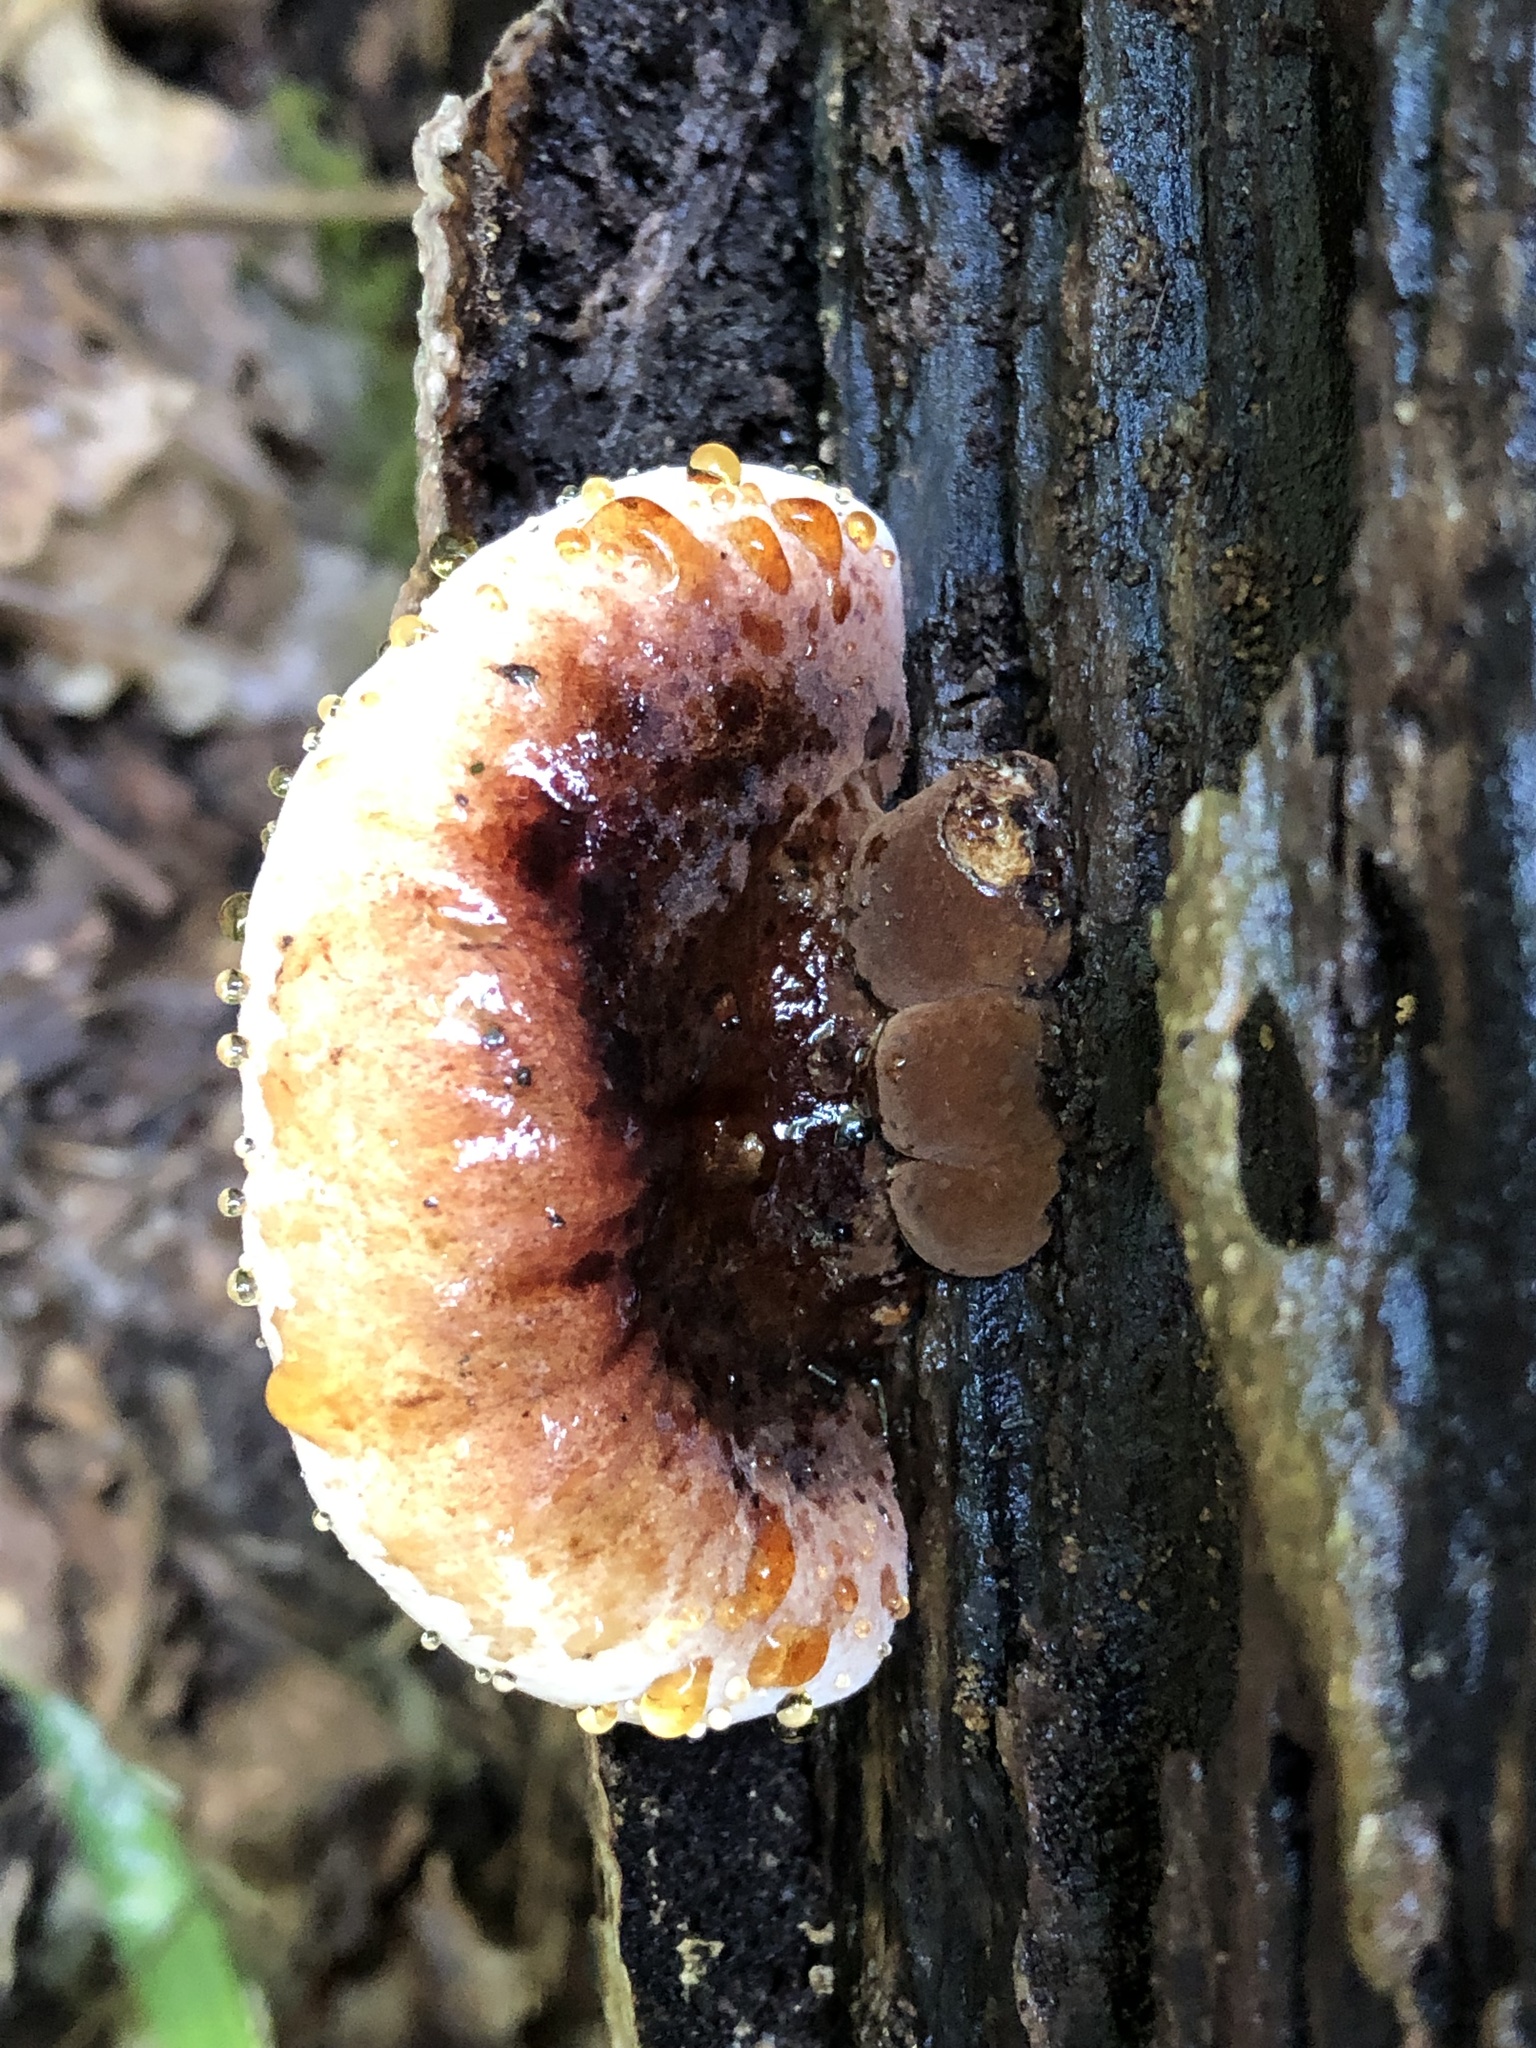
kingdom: Fungi
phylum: Basidiomycota
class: Agaricomycetes
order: Polyporales
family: Ischnodermataceae
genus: Ischnoderma
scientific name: Ischnoderma resinosum
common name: Resinous polypore
